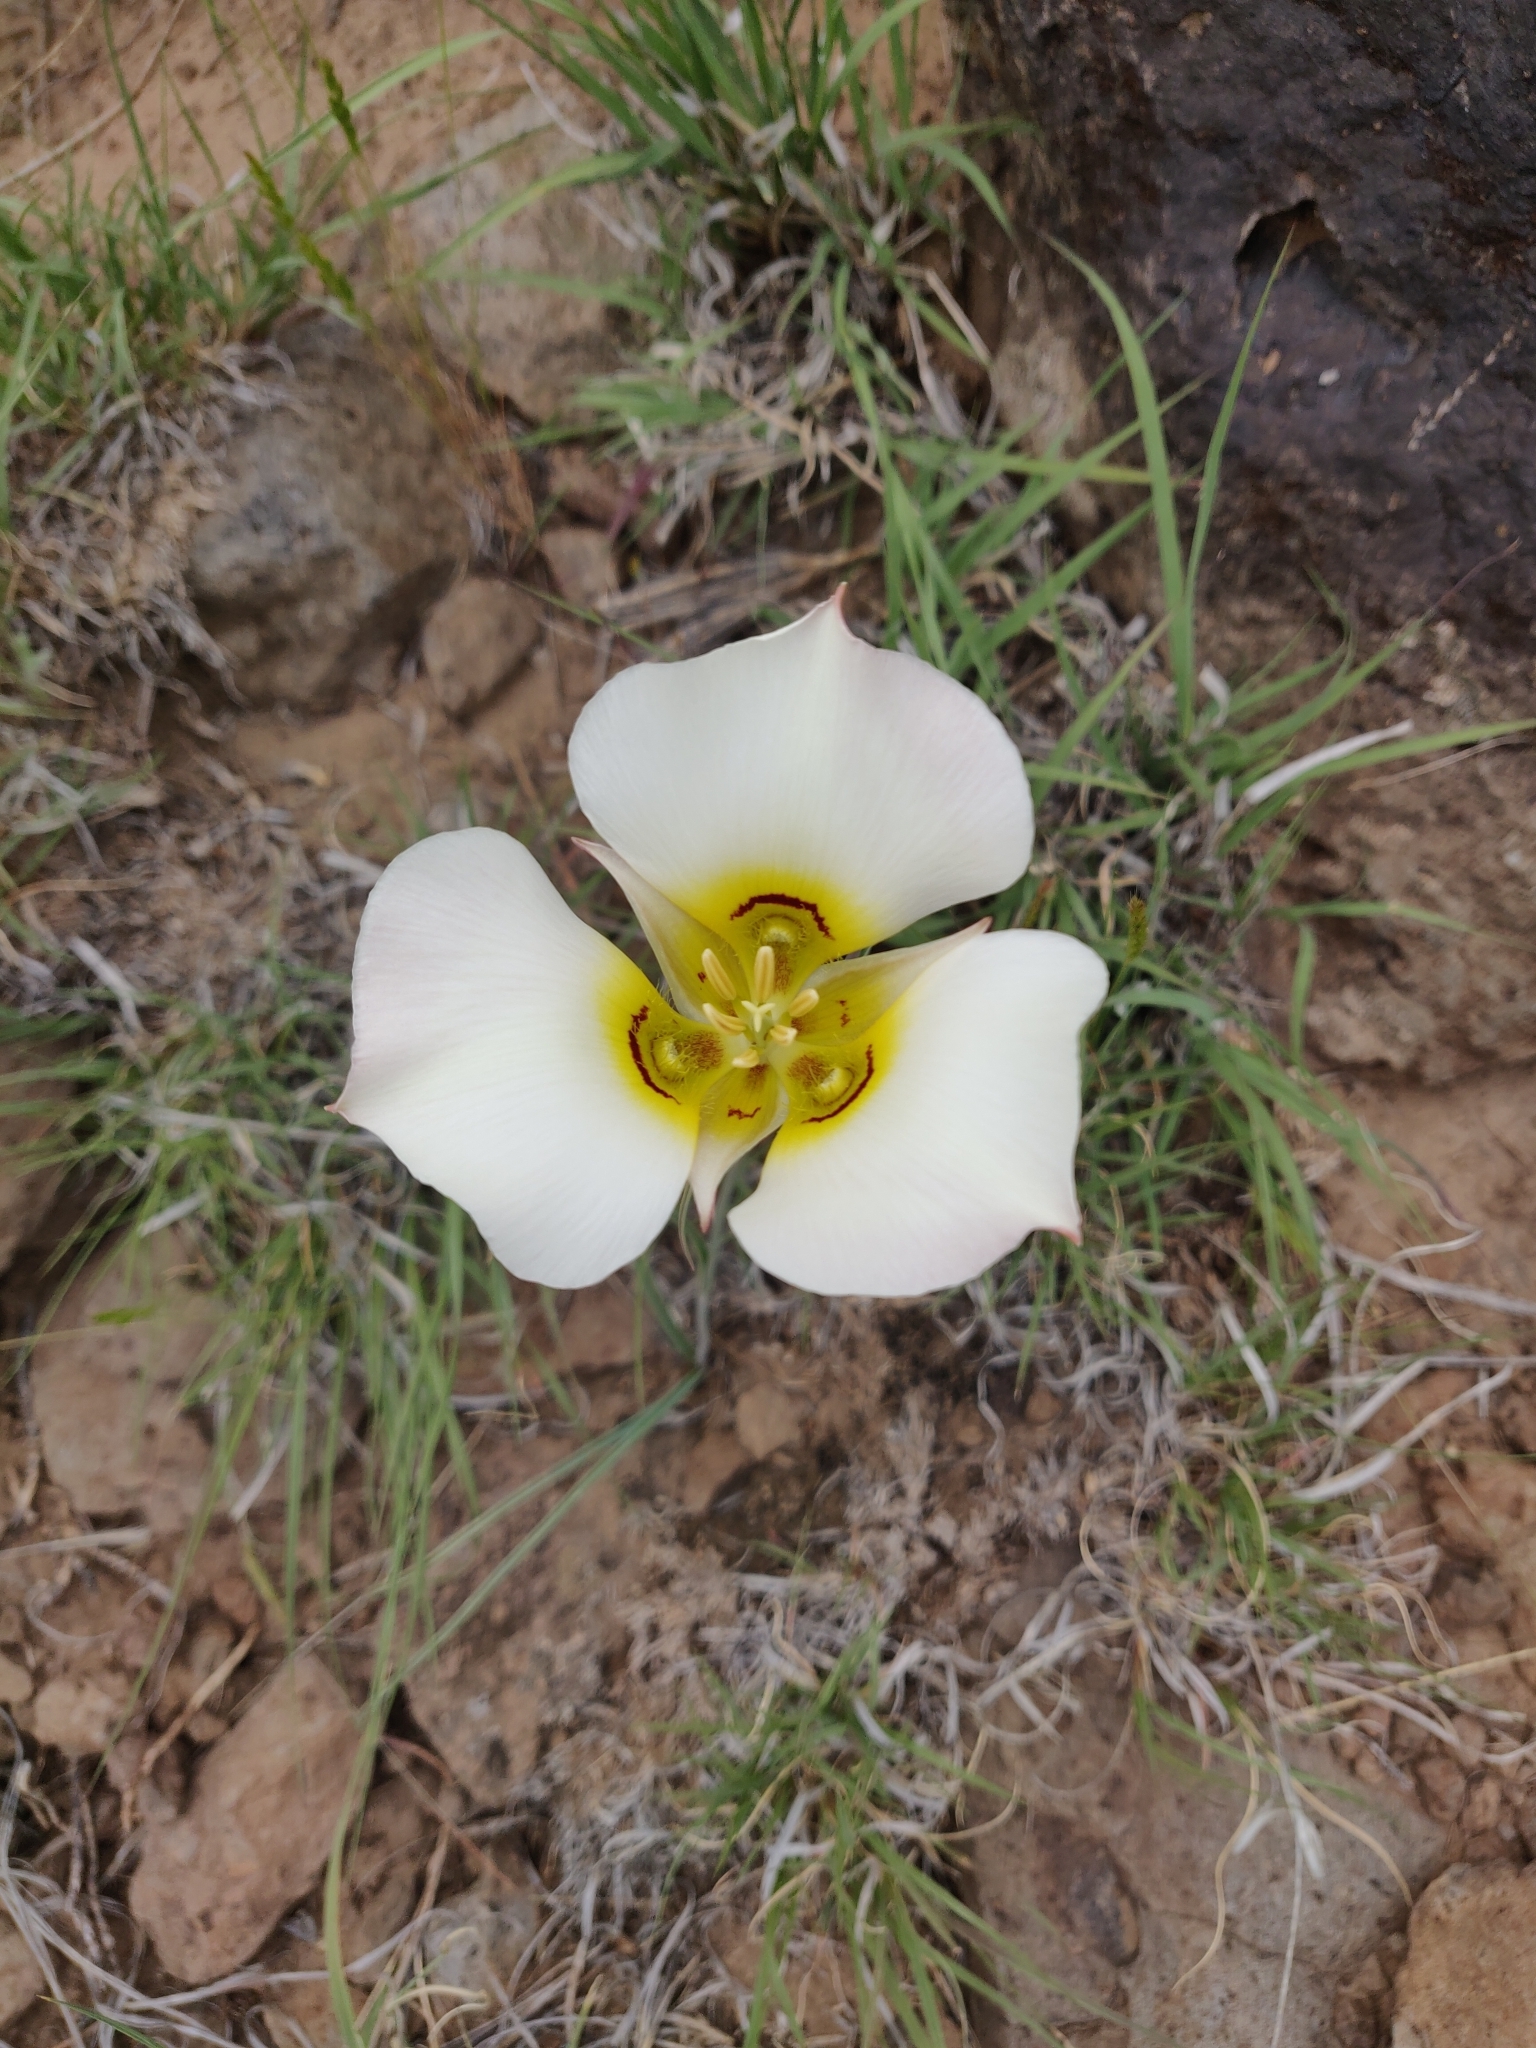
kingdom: Plantae
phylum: Tracheophyta
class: Liliopsida
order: Liliales
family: Liliaceae
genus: Calochortus
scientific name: Calochortus nuttallii
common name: Sego-lily
